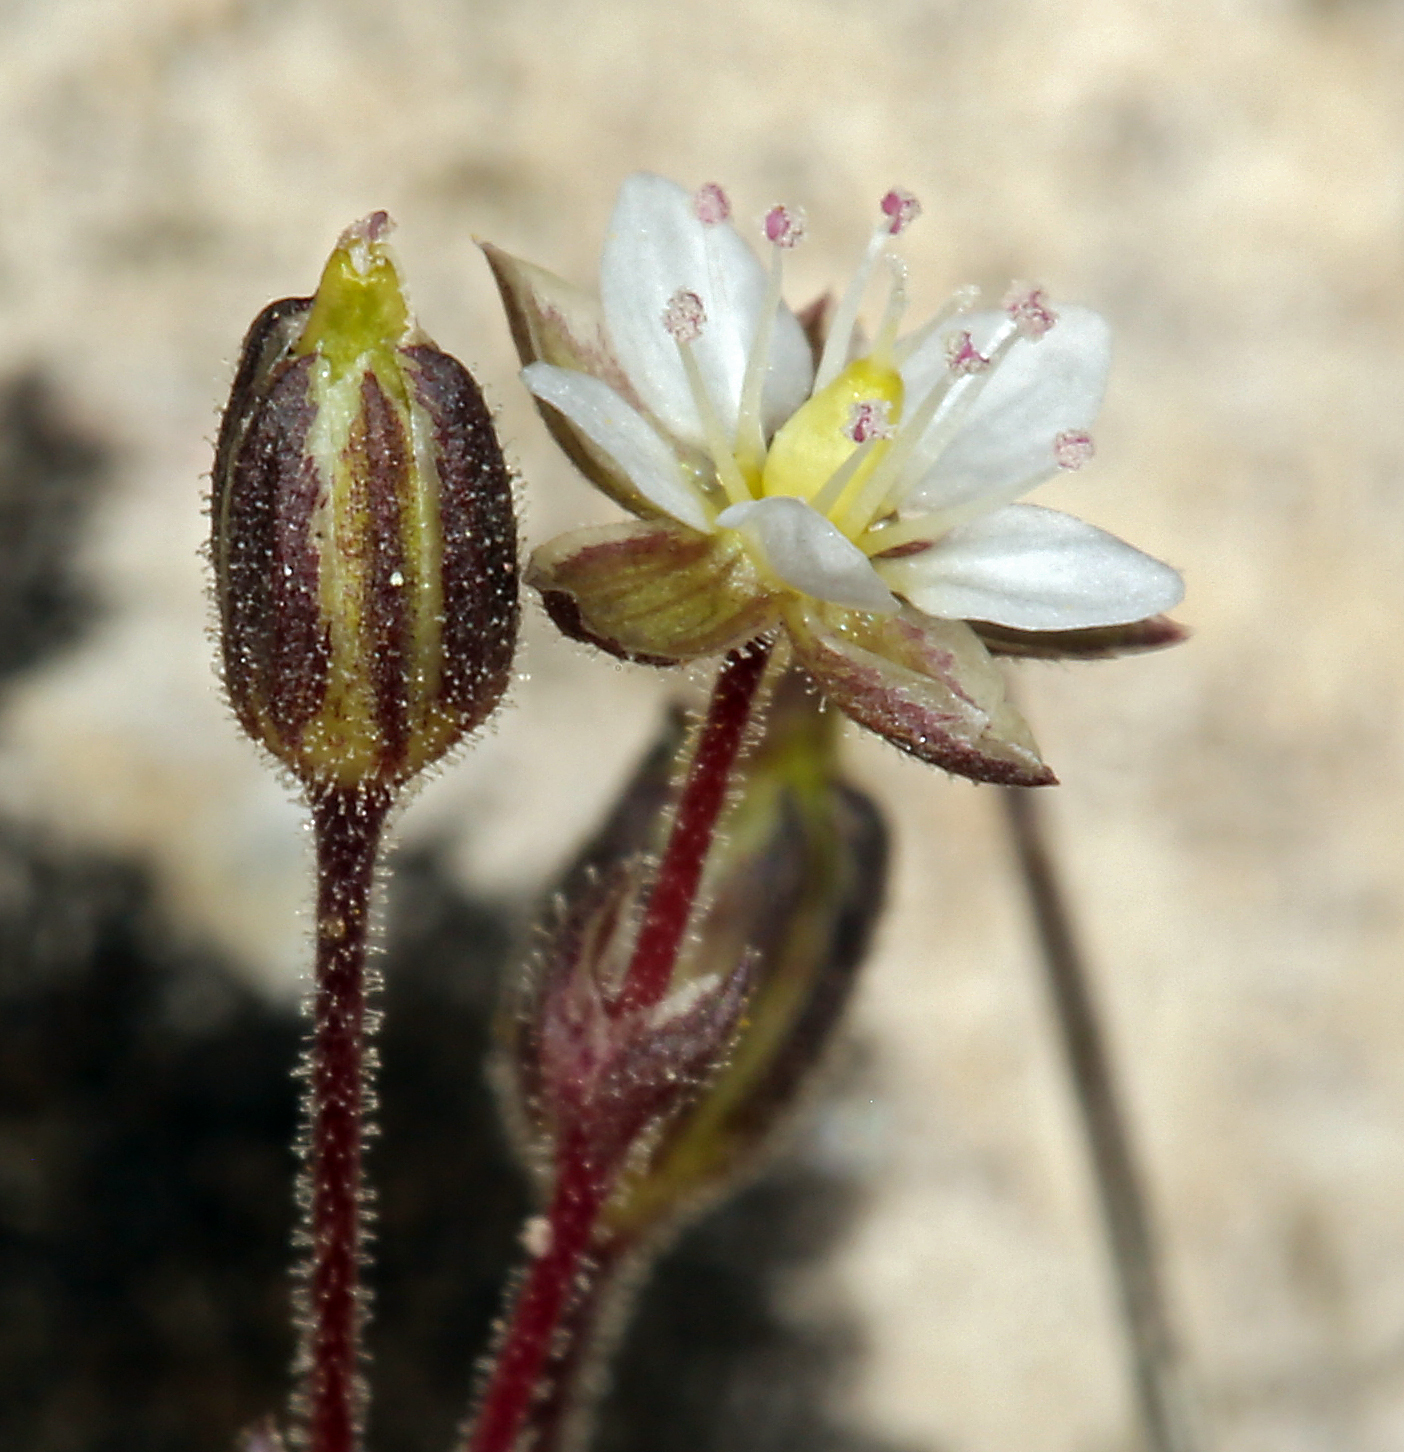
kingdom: Plantae
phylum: Tracheophyta
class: Magnoliopsida
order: Caryophyllales
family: Caryophyllaceae
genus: Sabulina
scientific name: Sabulina rubella
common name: Beautiful sandwort
